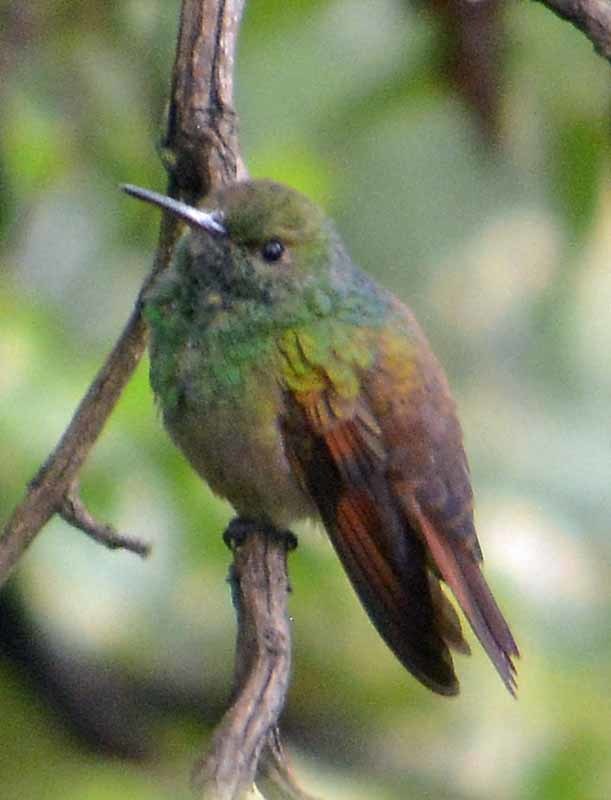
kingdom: Animalia
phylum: Chordata
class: Aves
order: Apodiformes
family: Trochilidae
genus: Saucerottia
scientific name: Saucerottia beryllina
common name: Berylline hummingbird
